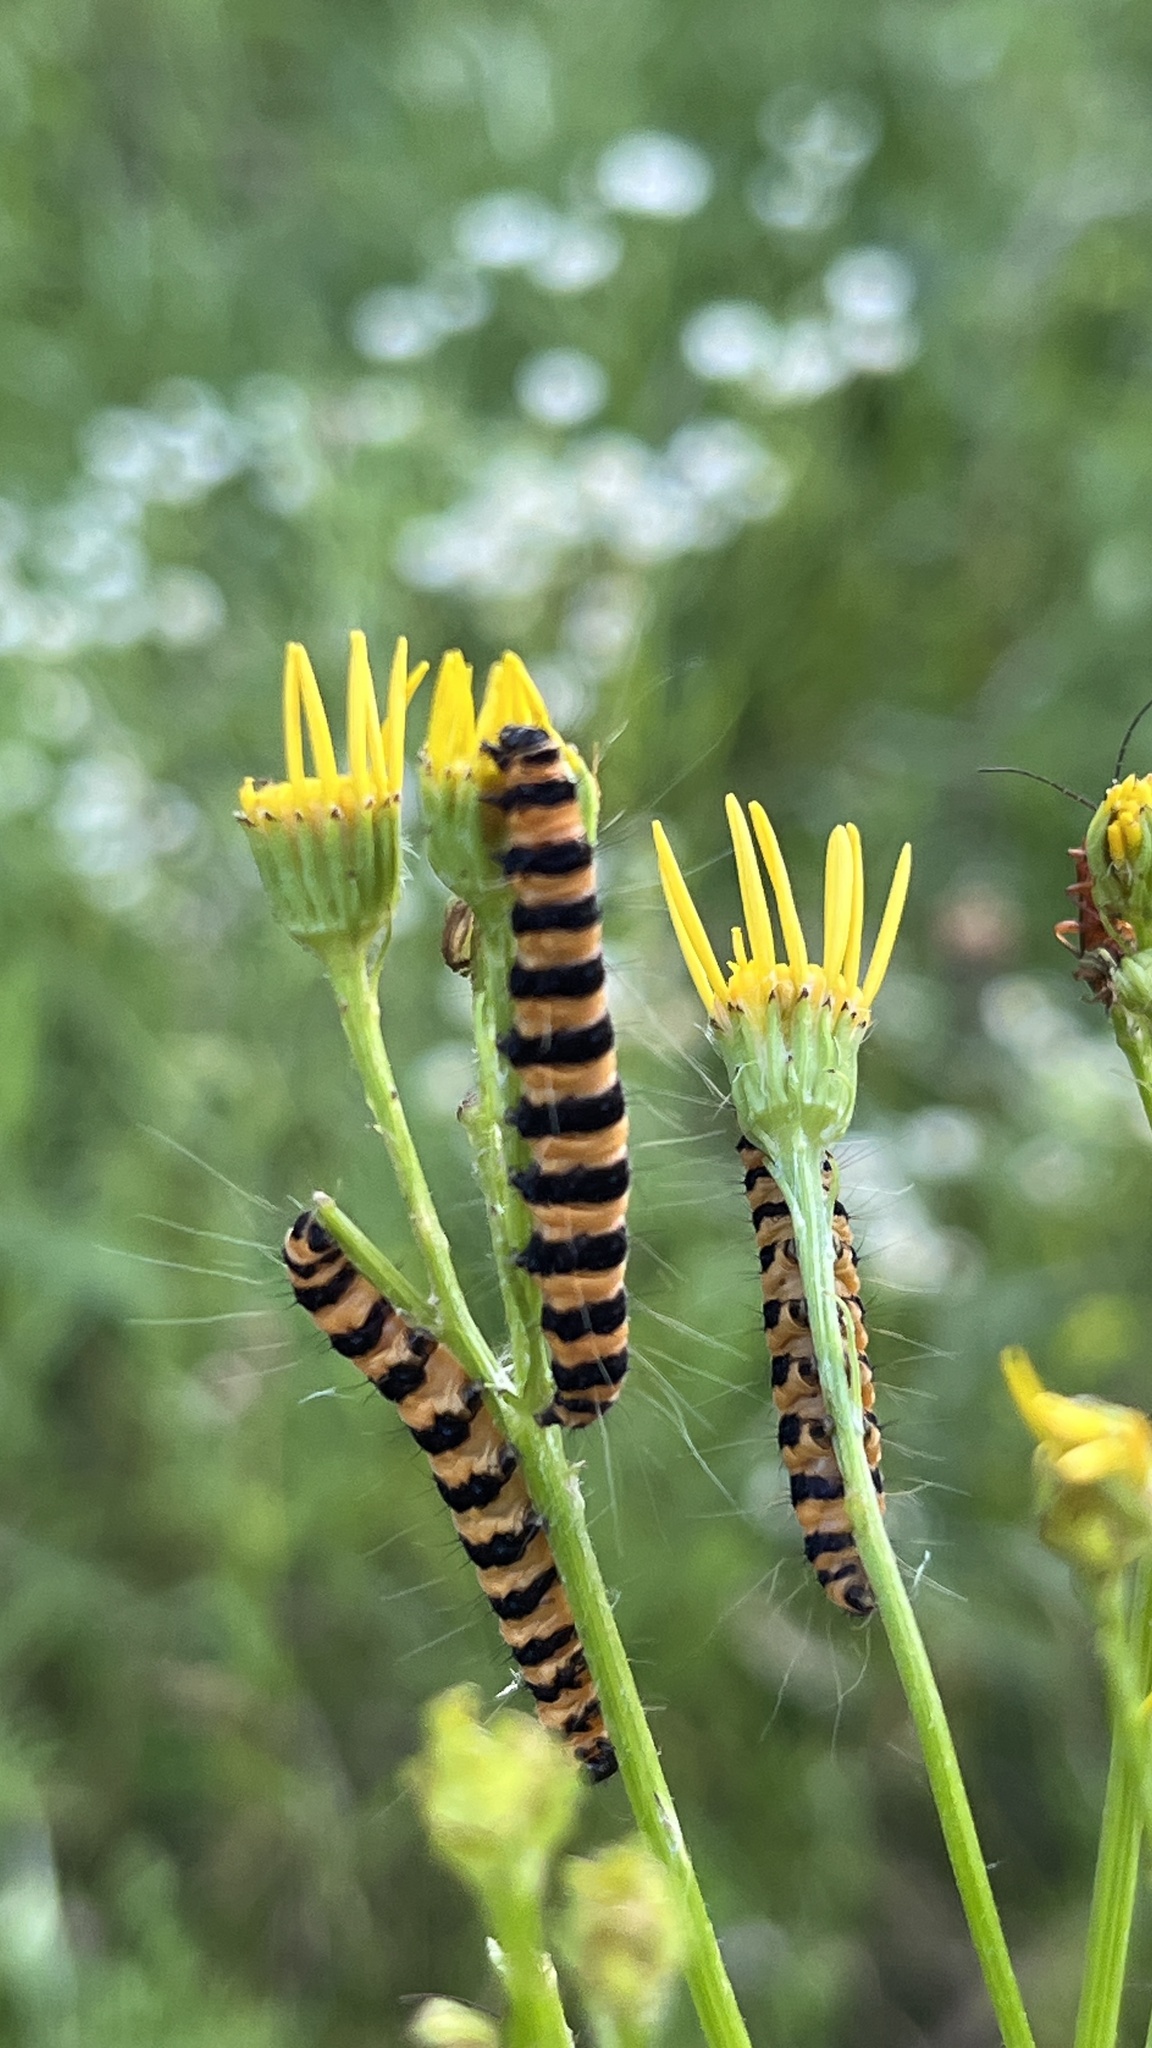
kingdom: Animalia
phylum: Arthropoda
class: Insecta
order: Lepidoptera
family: Erebidae
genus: Tyria
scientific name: Tyria jacobaeae
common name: Cinnabar
